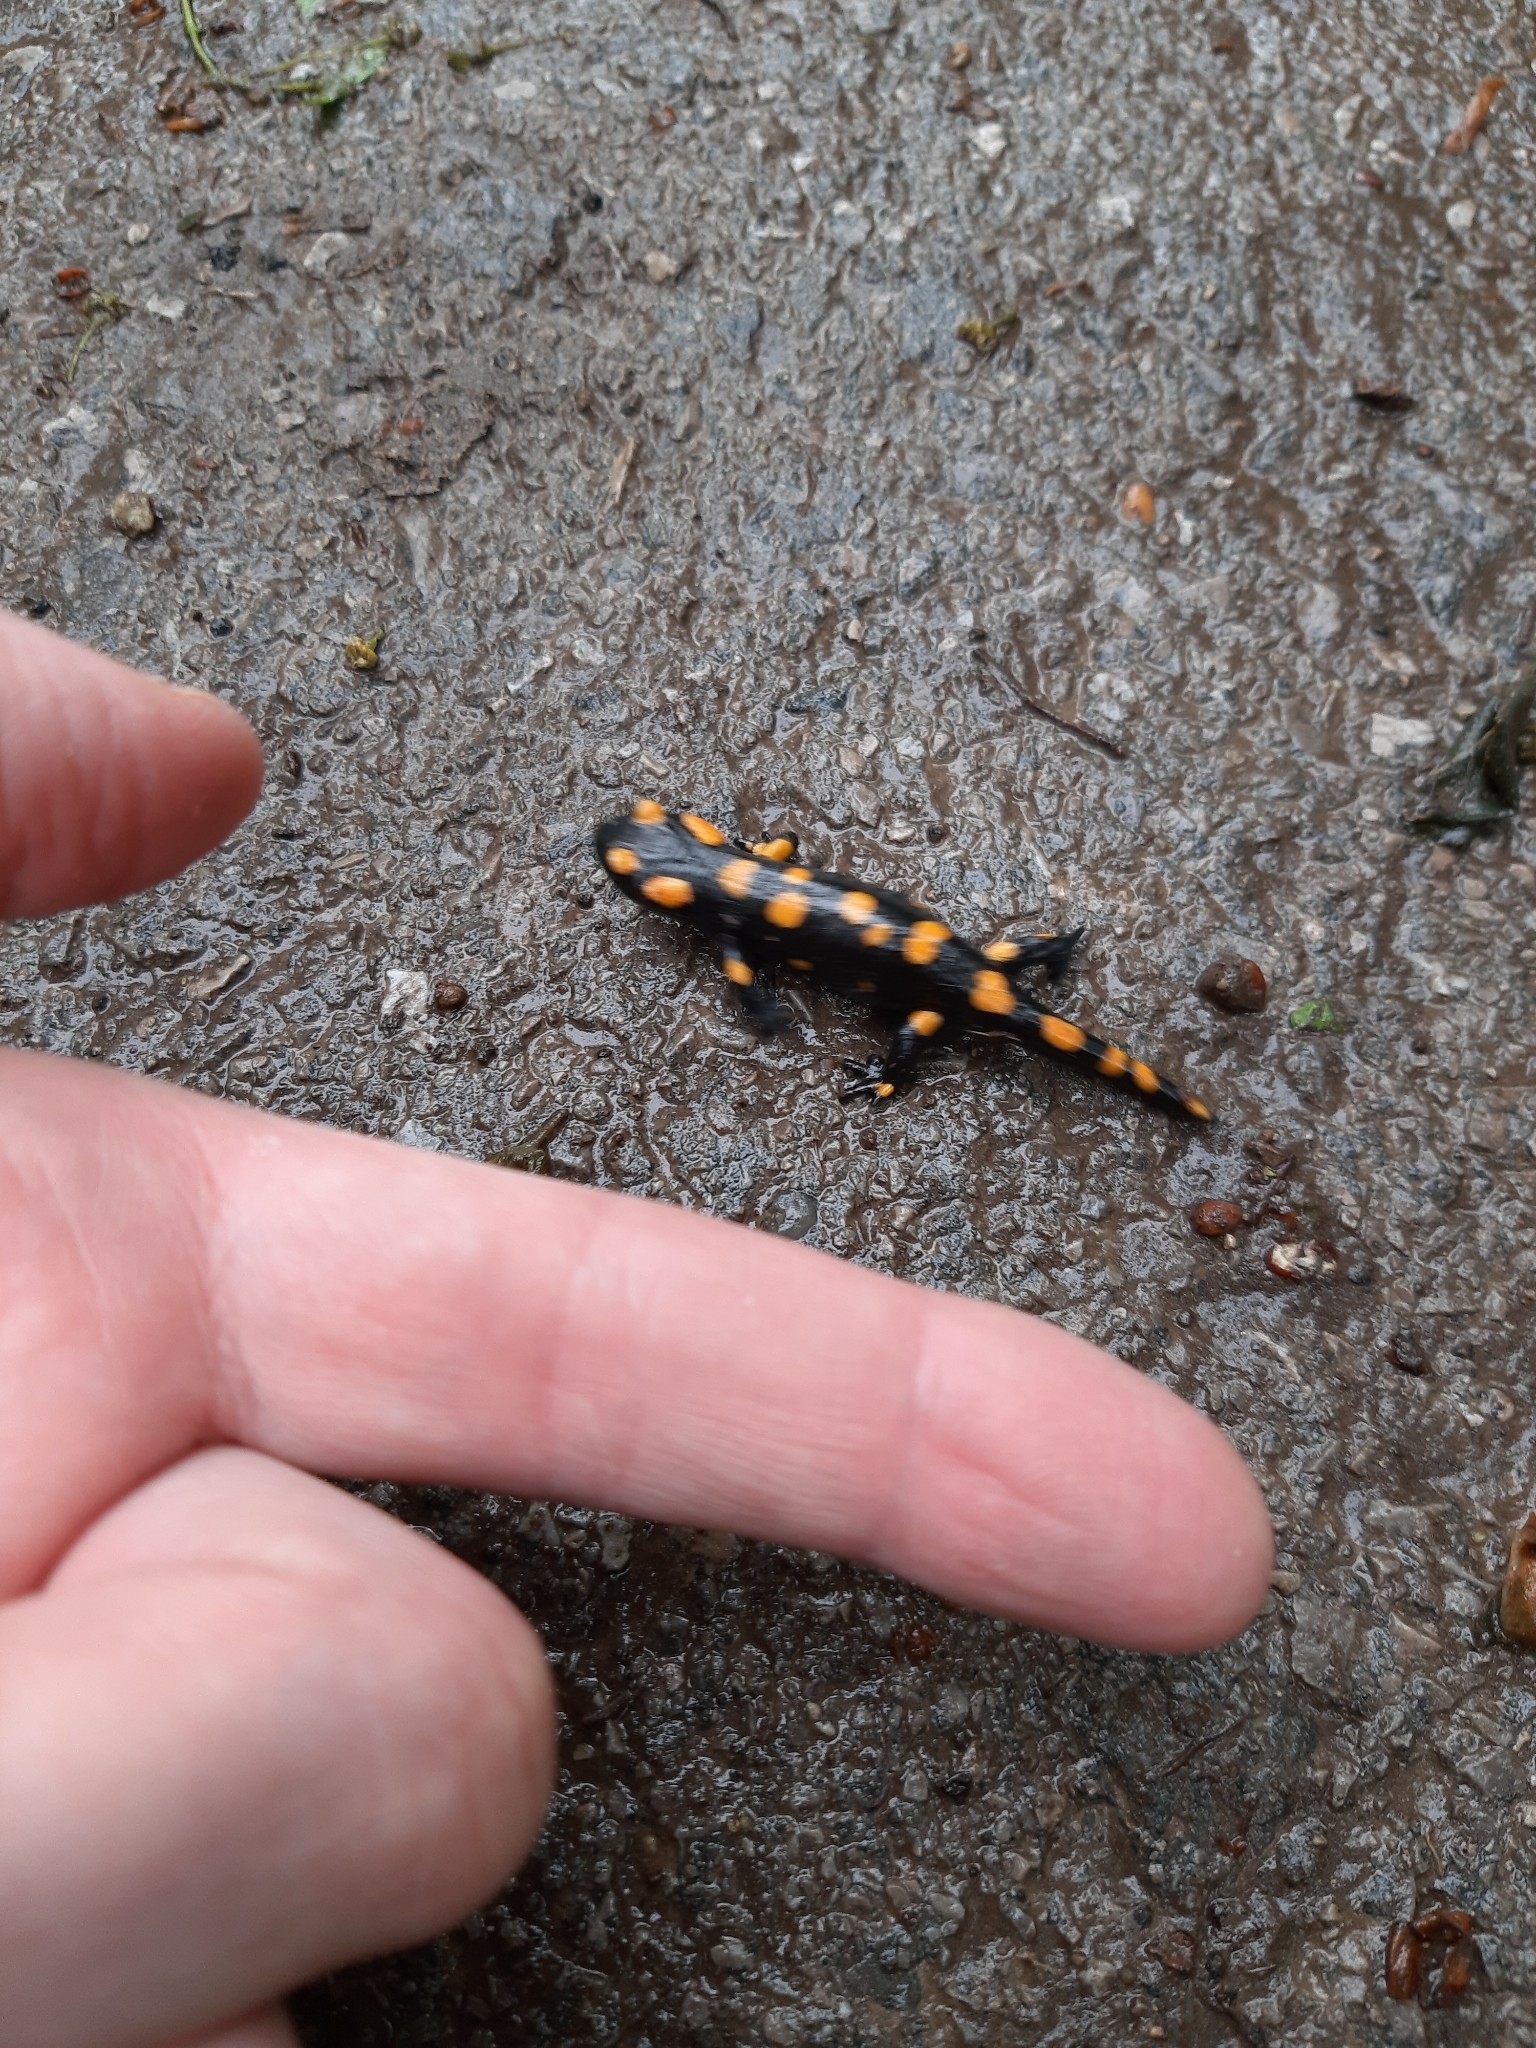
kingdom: Animalia
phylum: Chordata
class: Amphibia
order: Caudata
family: Salamandridae
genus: Salamandra
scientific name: Salamandra salamandra
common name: Fire salamander
